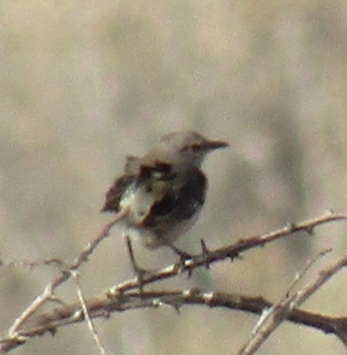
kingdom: Animalia
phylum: Chordata
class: Aves
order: Passeriformes
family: Mimidae
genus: Mimus
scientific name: Mimus polyglottos
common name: Northern mockingbird
